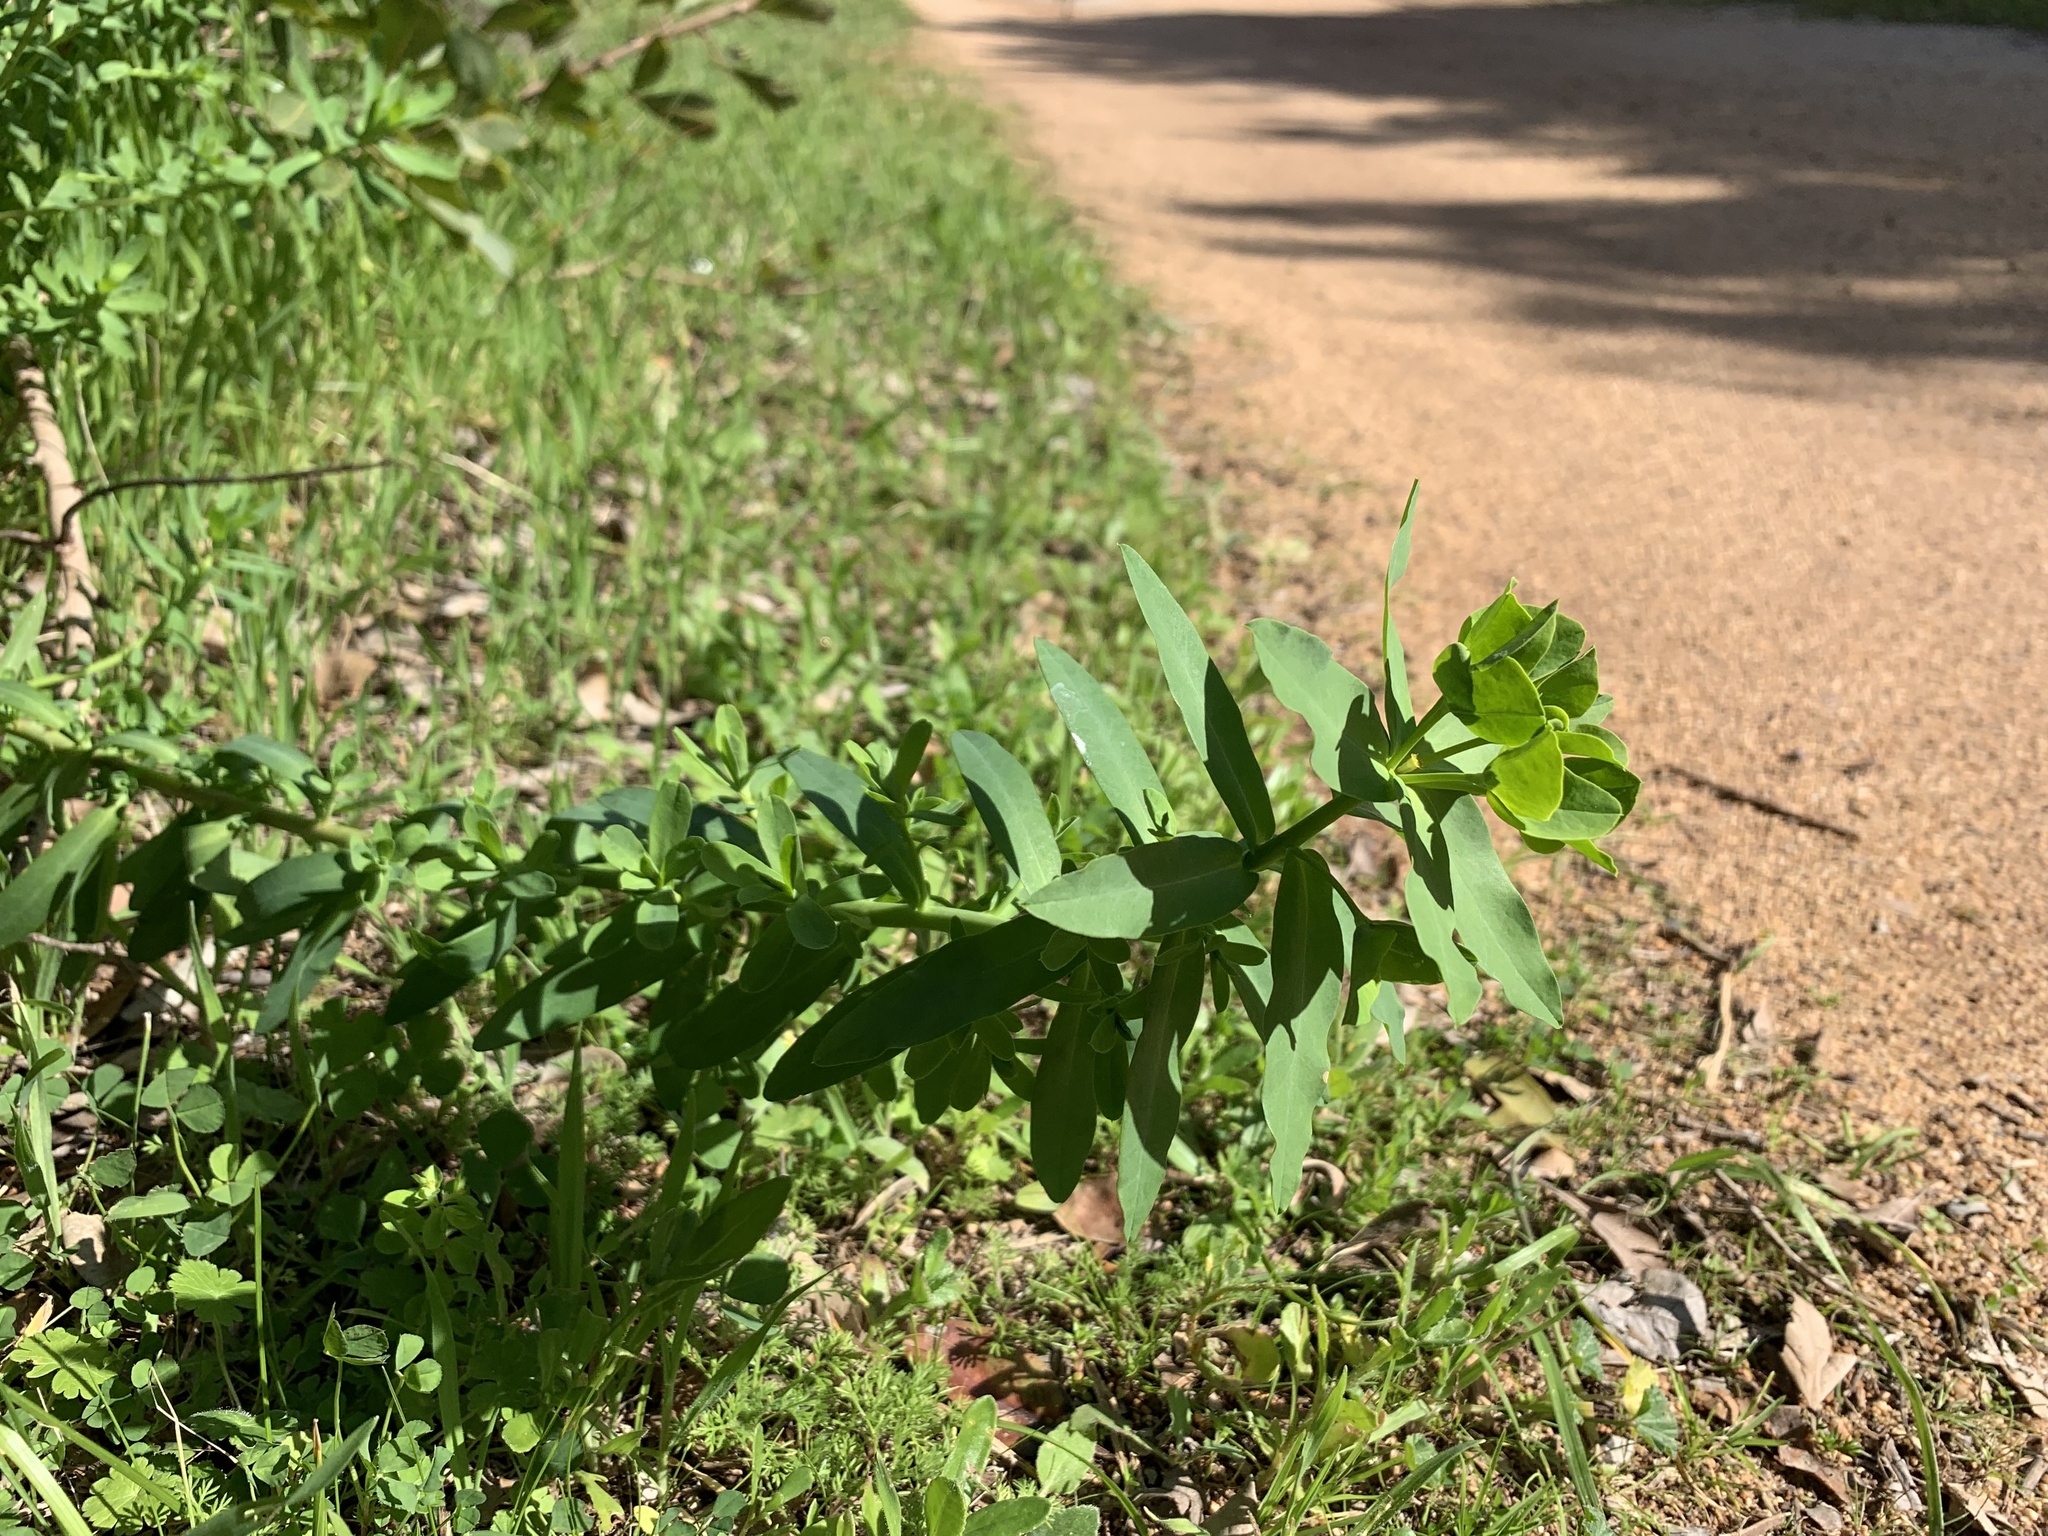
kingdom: Plantae
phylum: Tracheophyta
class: Magnoliopsida
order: Malpighiales
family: Euphorbiaceae
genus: Euphorbia
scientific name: Euphorbia terracina
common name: Geraldton carnation weed
